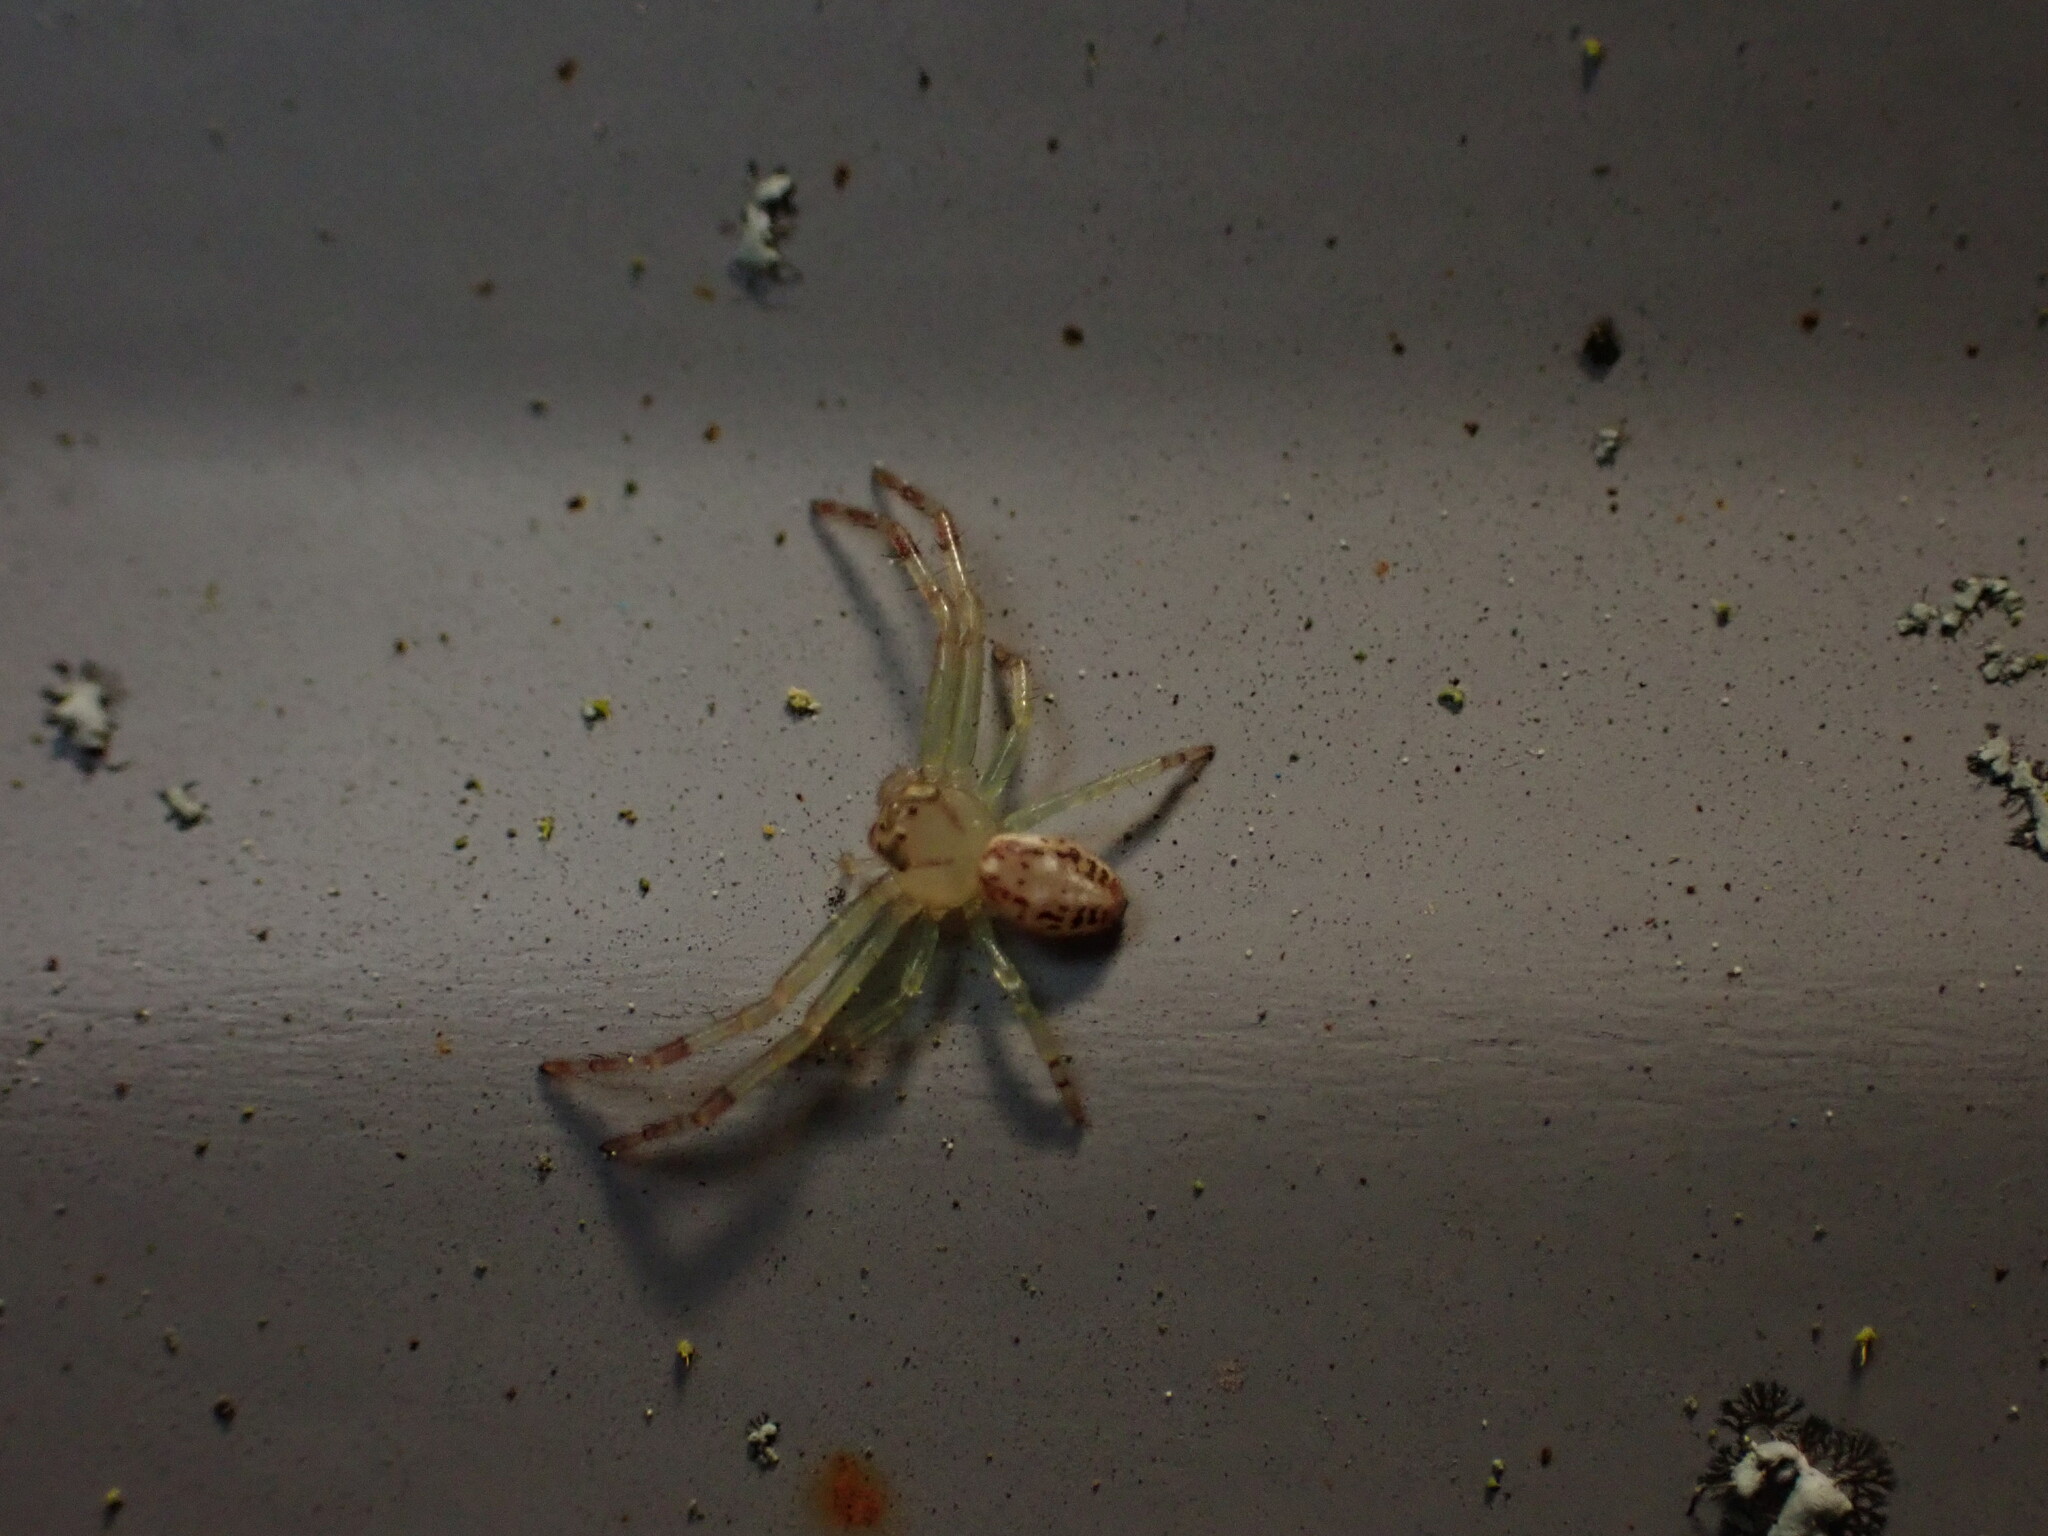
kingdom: Animalia
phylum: Arthropoda
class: Arachnida
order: Araneae
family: Thomisidae
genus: Diaea
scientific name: Diaea ambara
